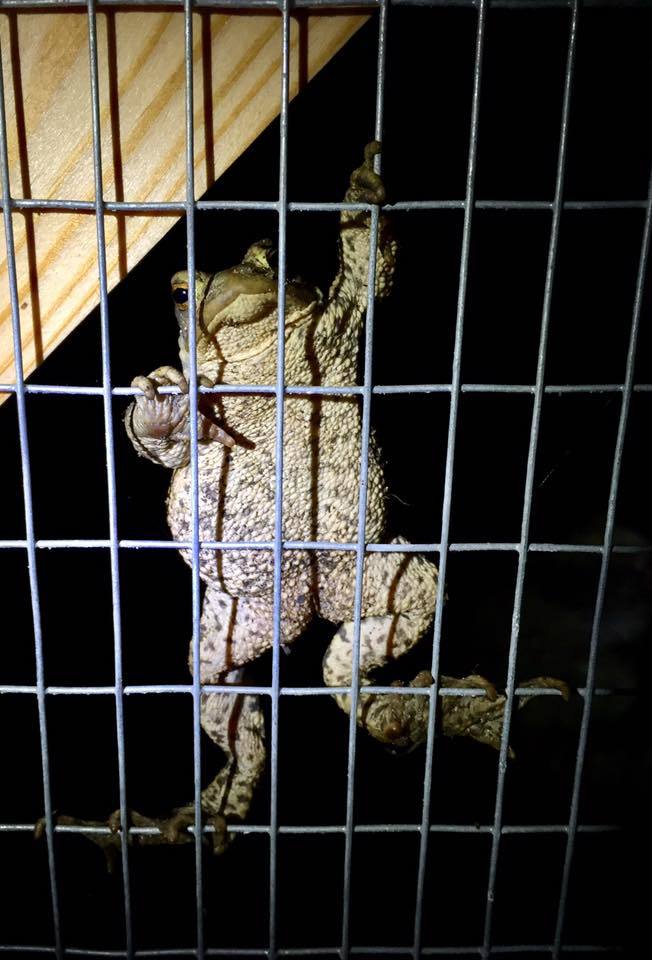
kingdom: Animalia
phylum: Chordata
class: Amphibia
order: Anura
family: Bufonidae
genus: Bufo
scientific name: Bufo bufo
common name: Common toad
